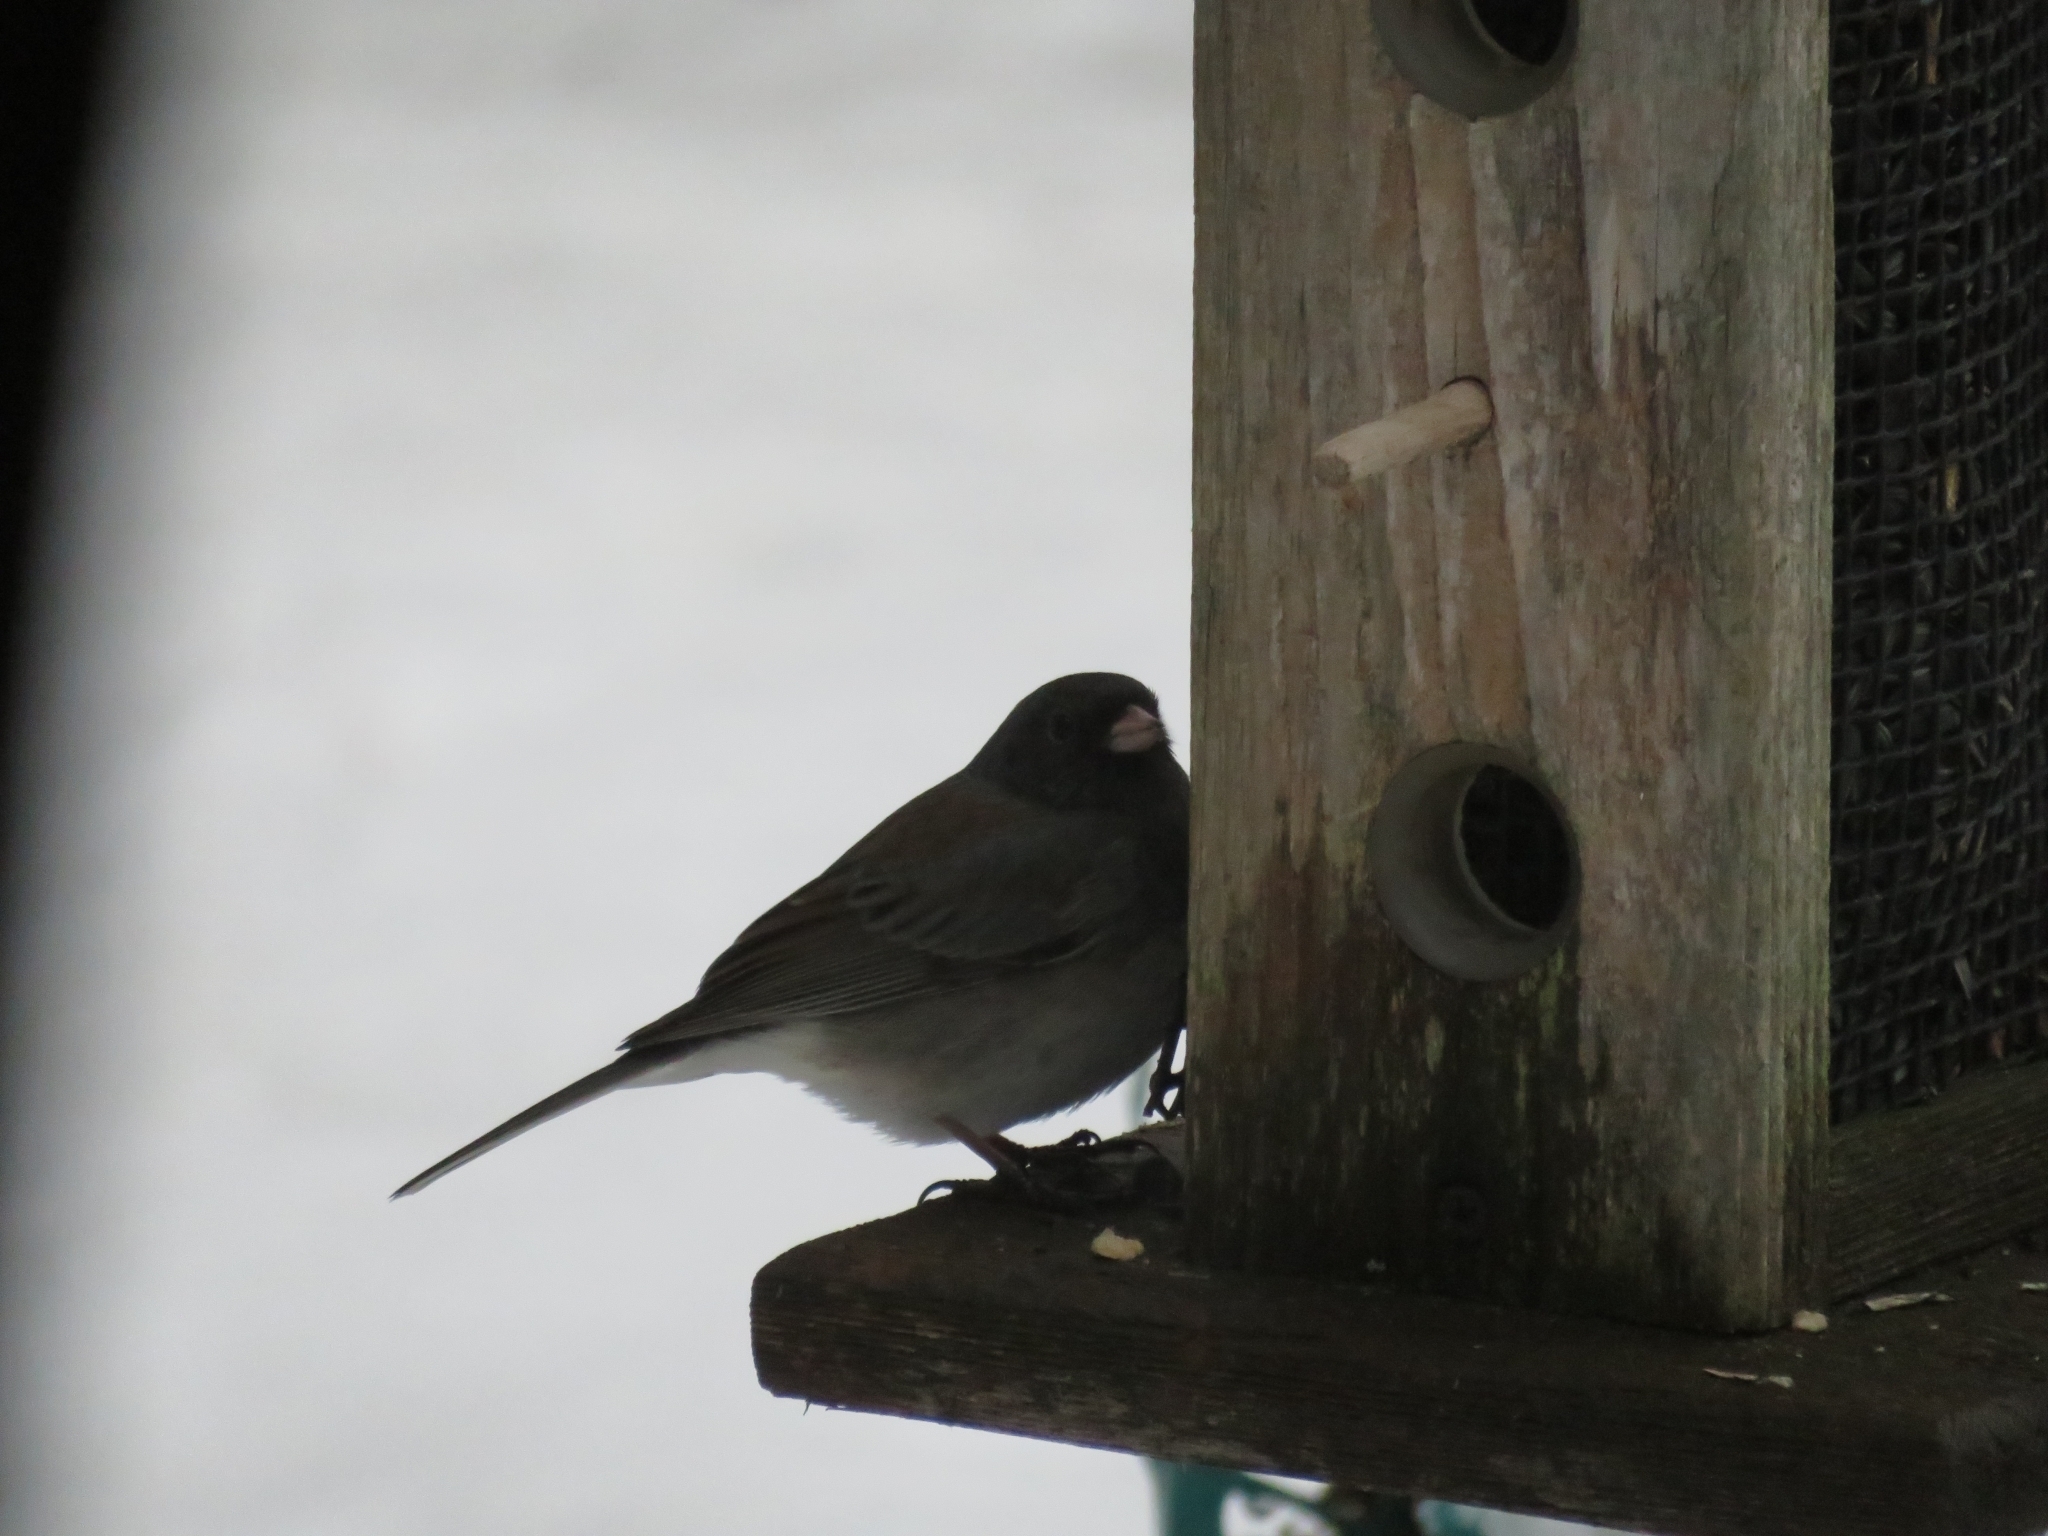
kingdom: Animalia
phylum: Chordata
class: Aves
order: Passeriformes
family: Passerellidae
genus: Junco
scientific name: Junco hyemalis
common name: Dark-eyed junco
